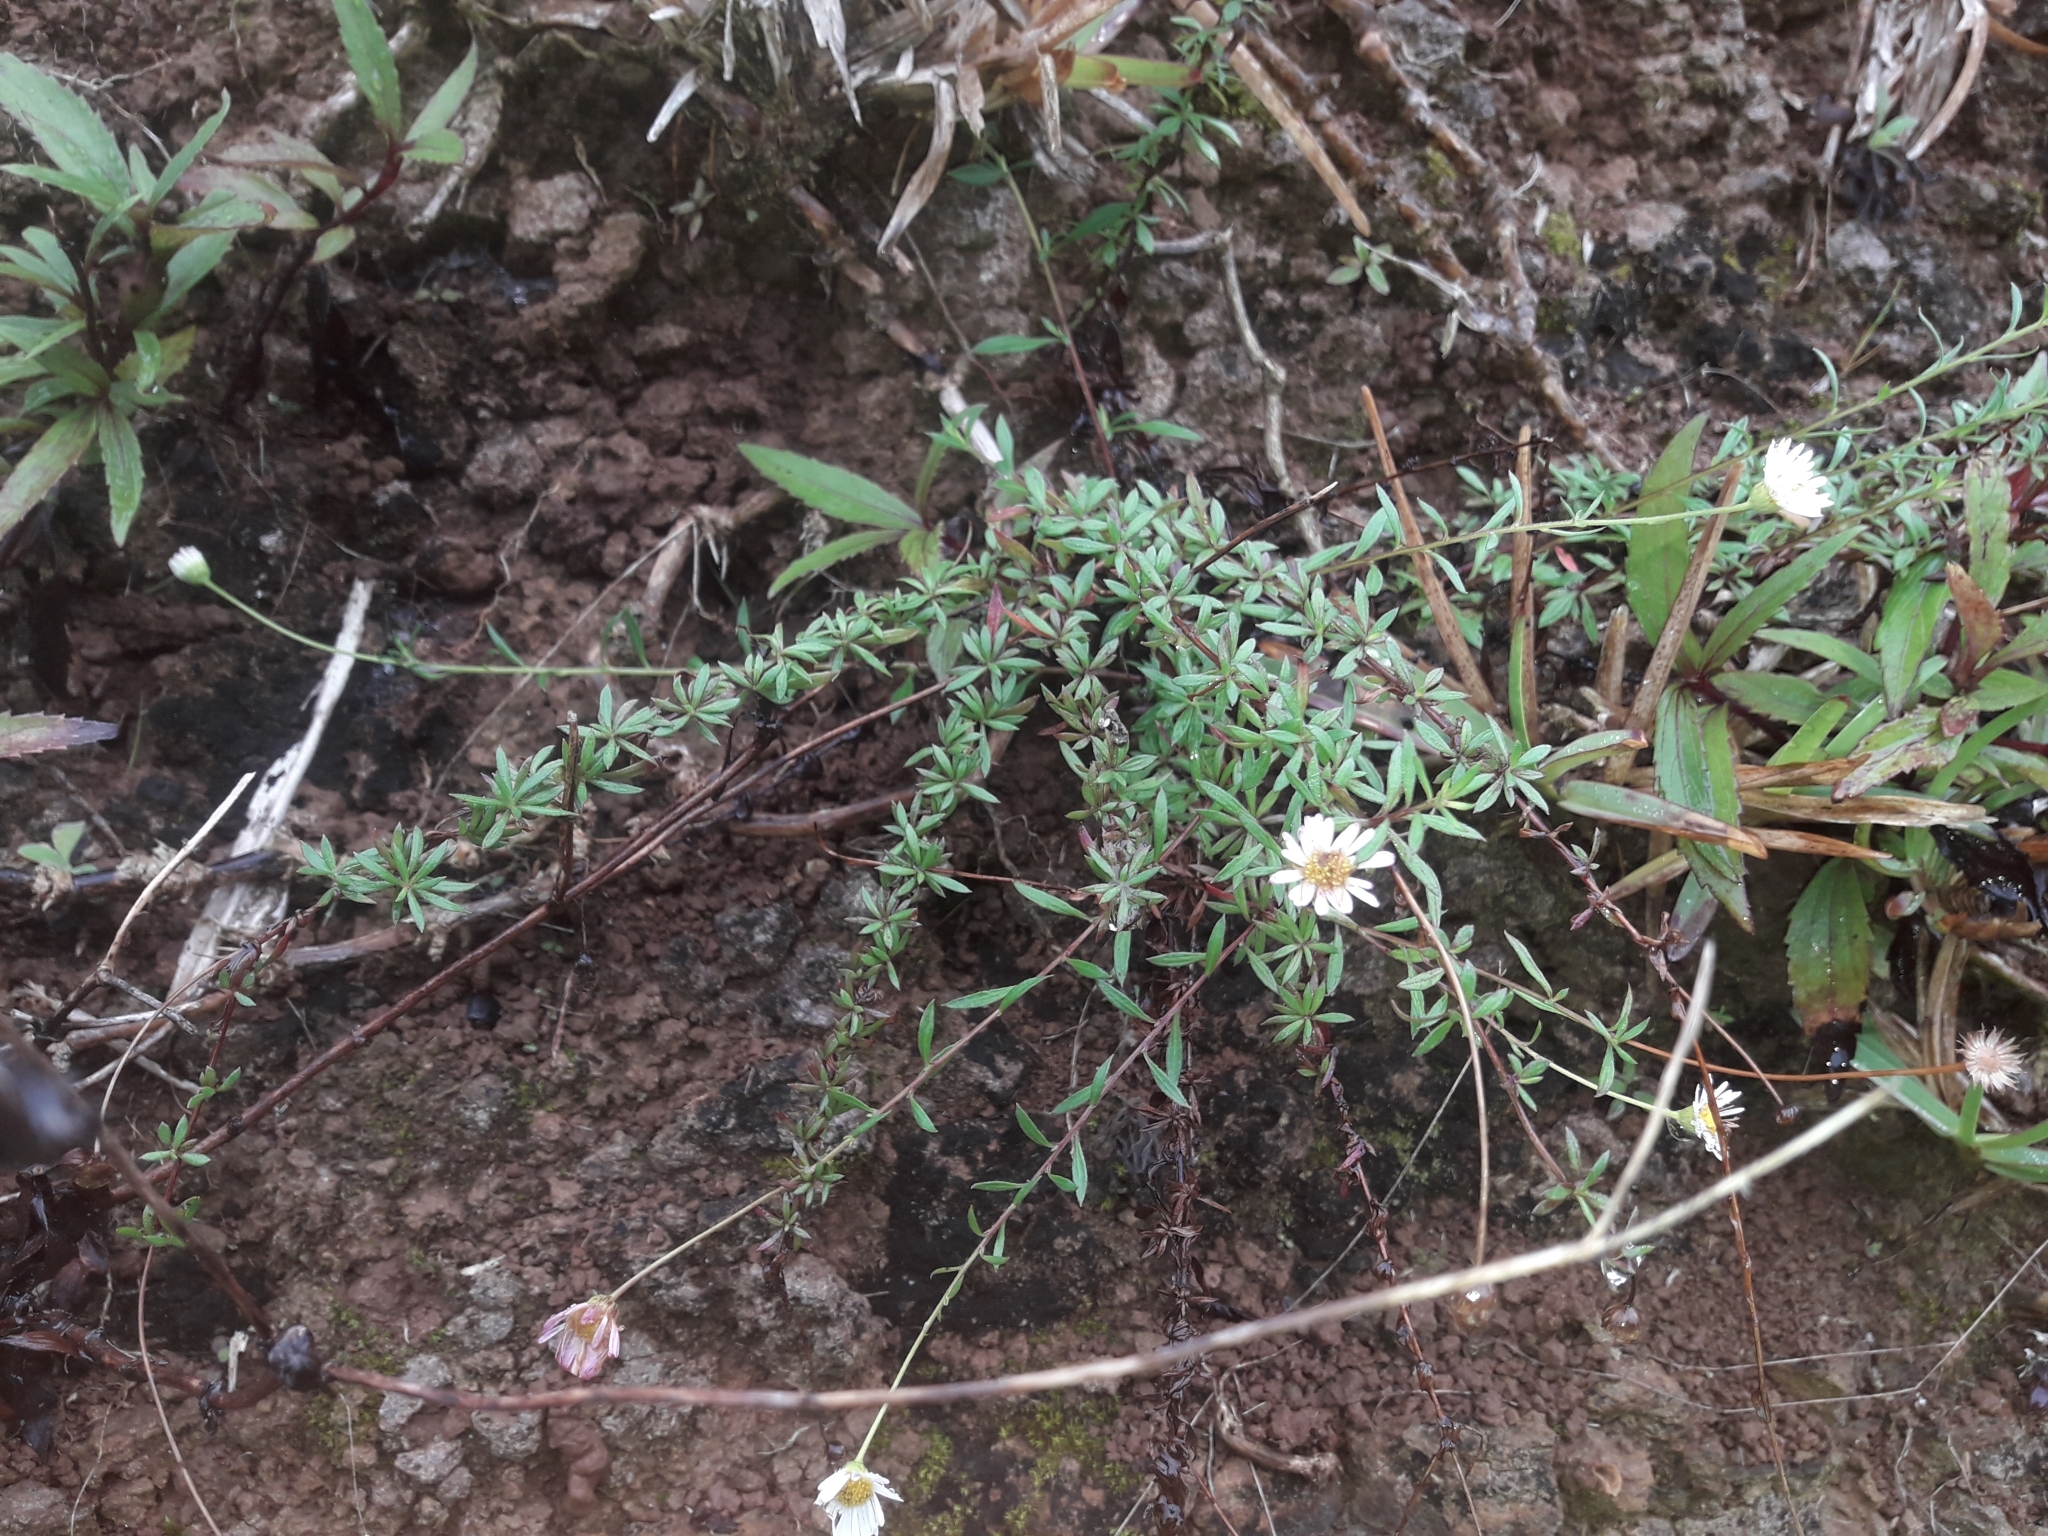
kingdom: Plantae
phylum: Tracheophyta
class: Magnoliopsida
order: Asterales
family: Asteraceae
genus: Erigeron
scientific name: Erigeron karvinskianus
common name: Mexican fleabane
